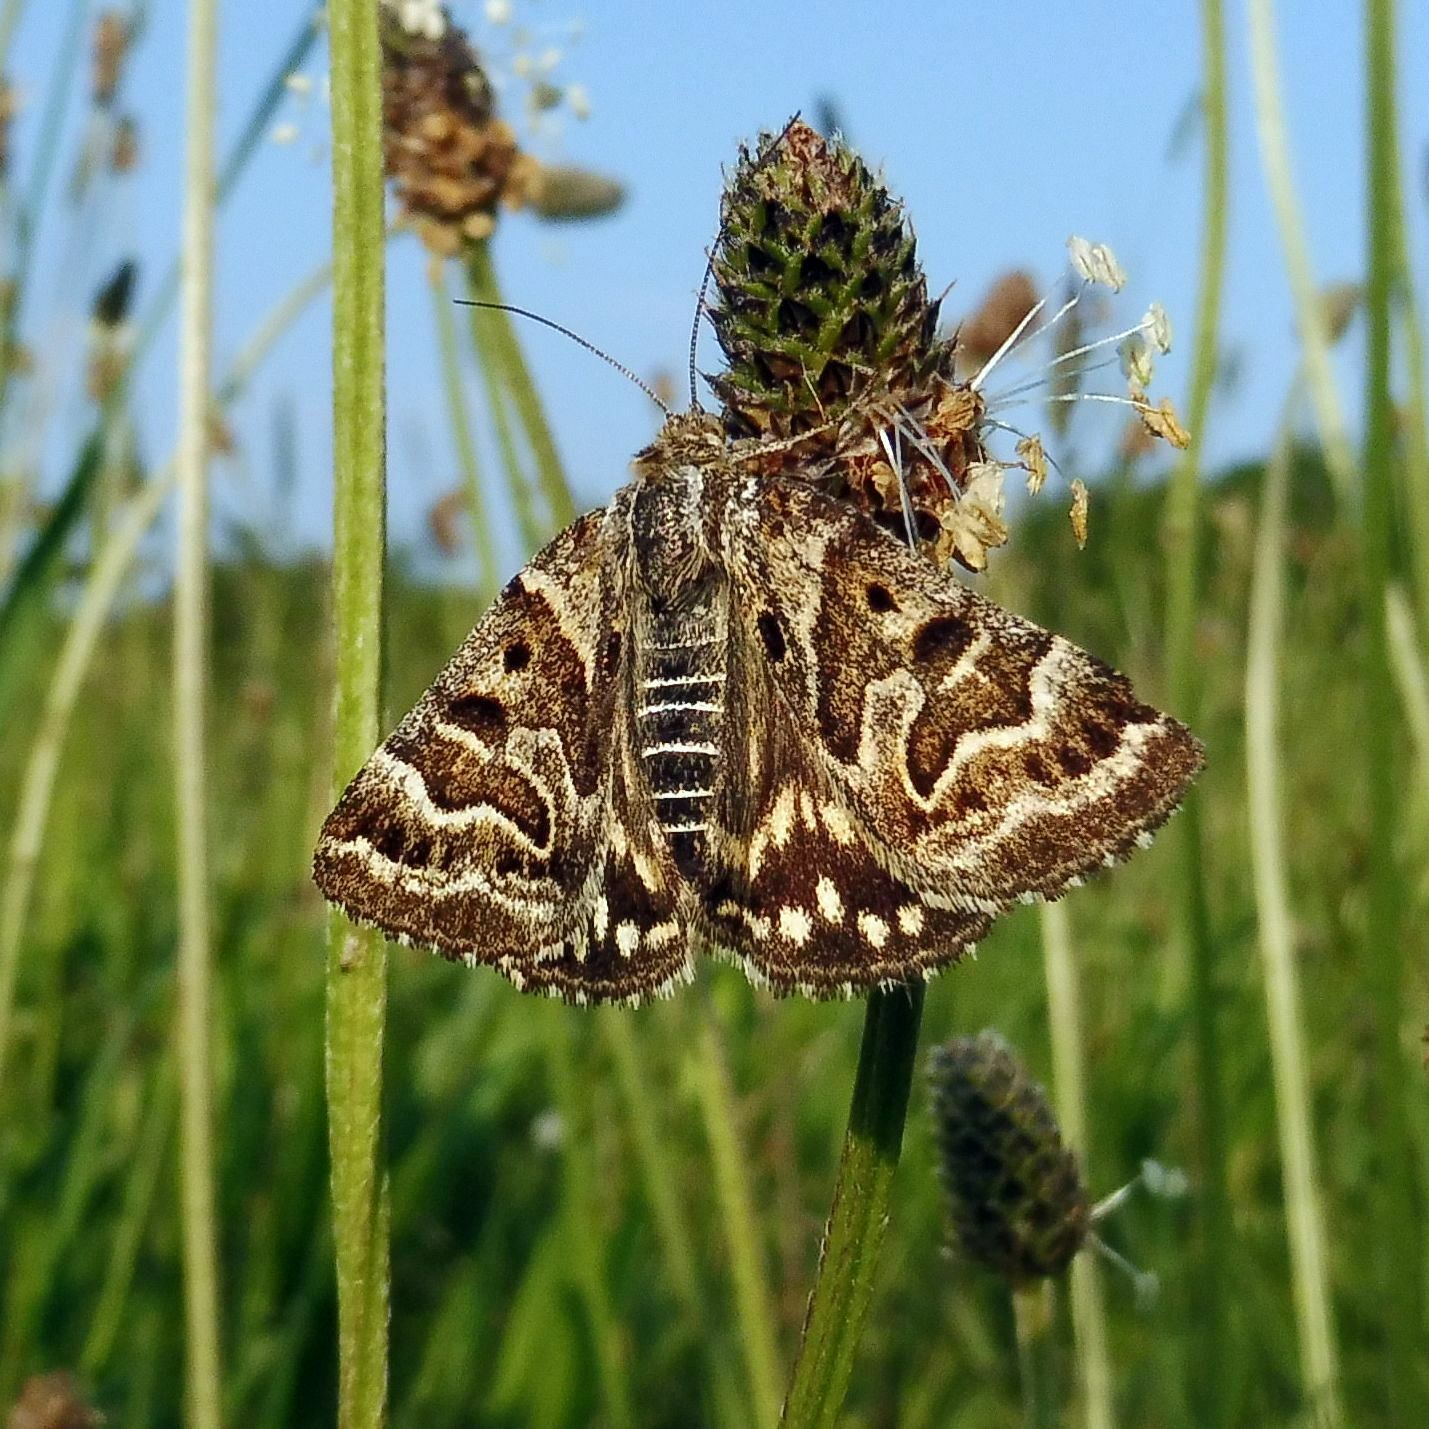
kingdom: Animalia
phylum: Arthropoda
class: Insecta
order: Lepidoptera
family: Erebidae
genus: Callistege
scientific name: Callistege mi
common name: Mother shipton
